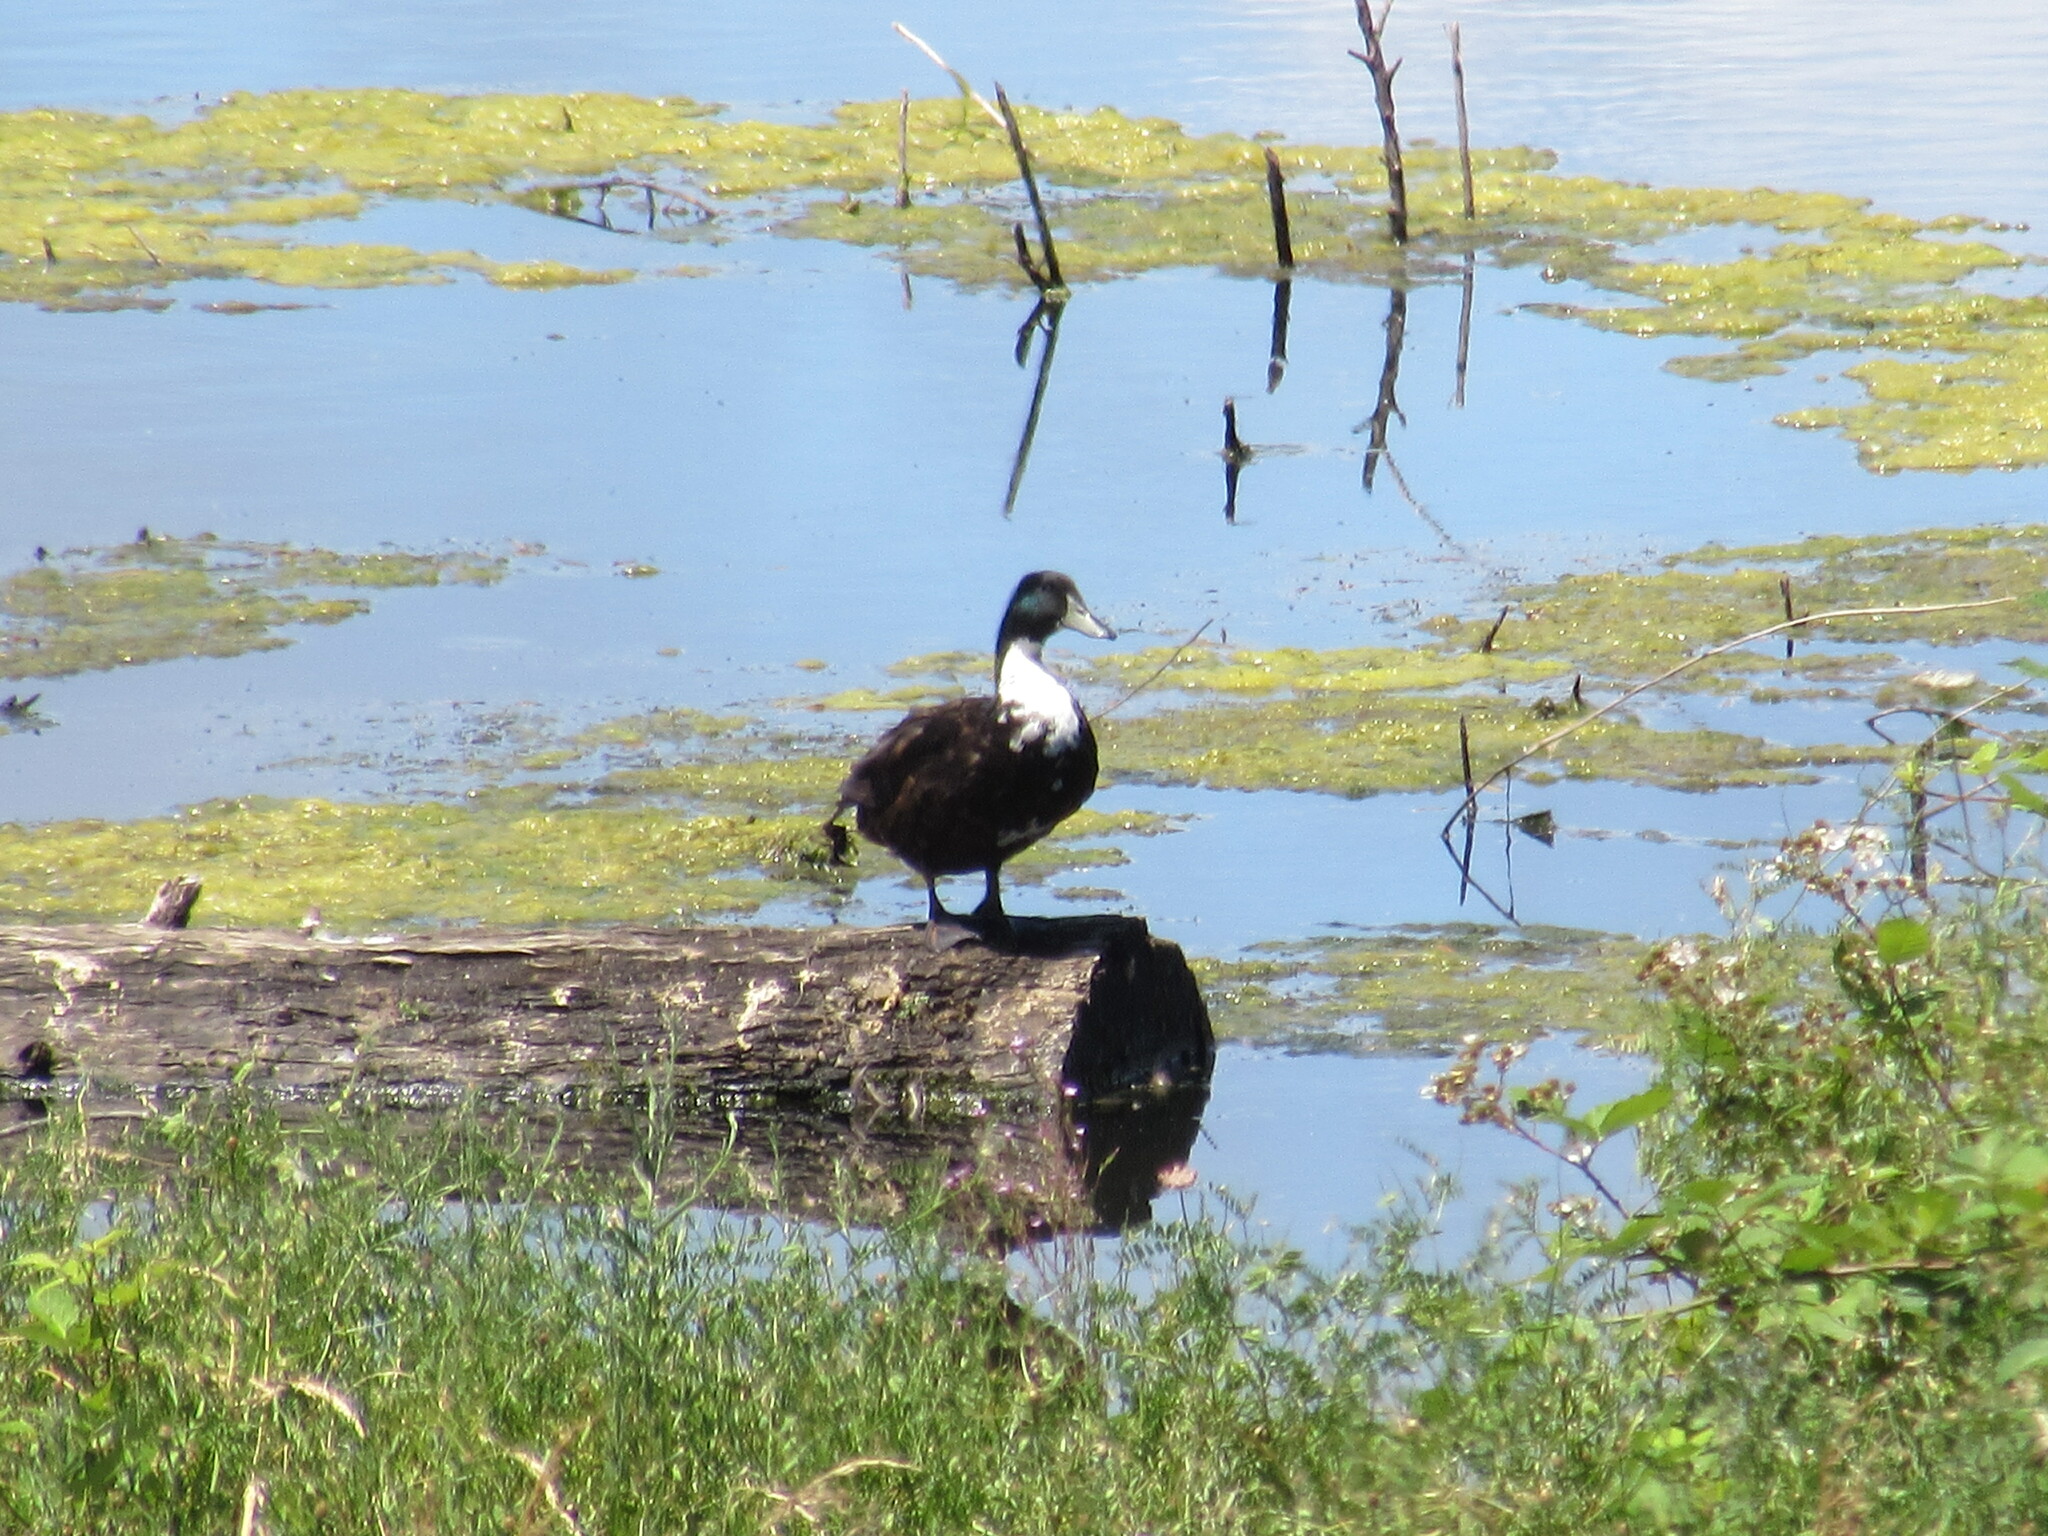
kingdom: Animalia
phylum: Chordata
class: Aves
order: Anseriformes
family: Anatidae
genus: Anas
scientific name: Anas platyrhynchos
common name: Mallard
